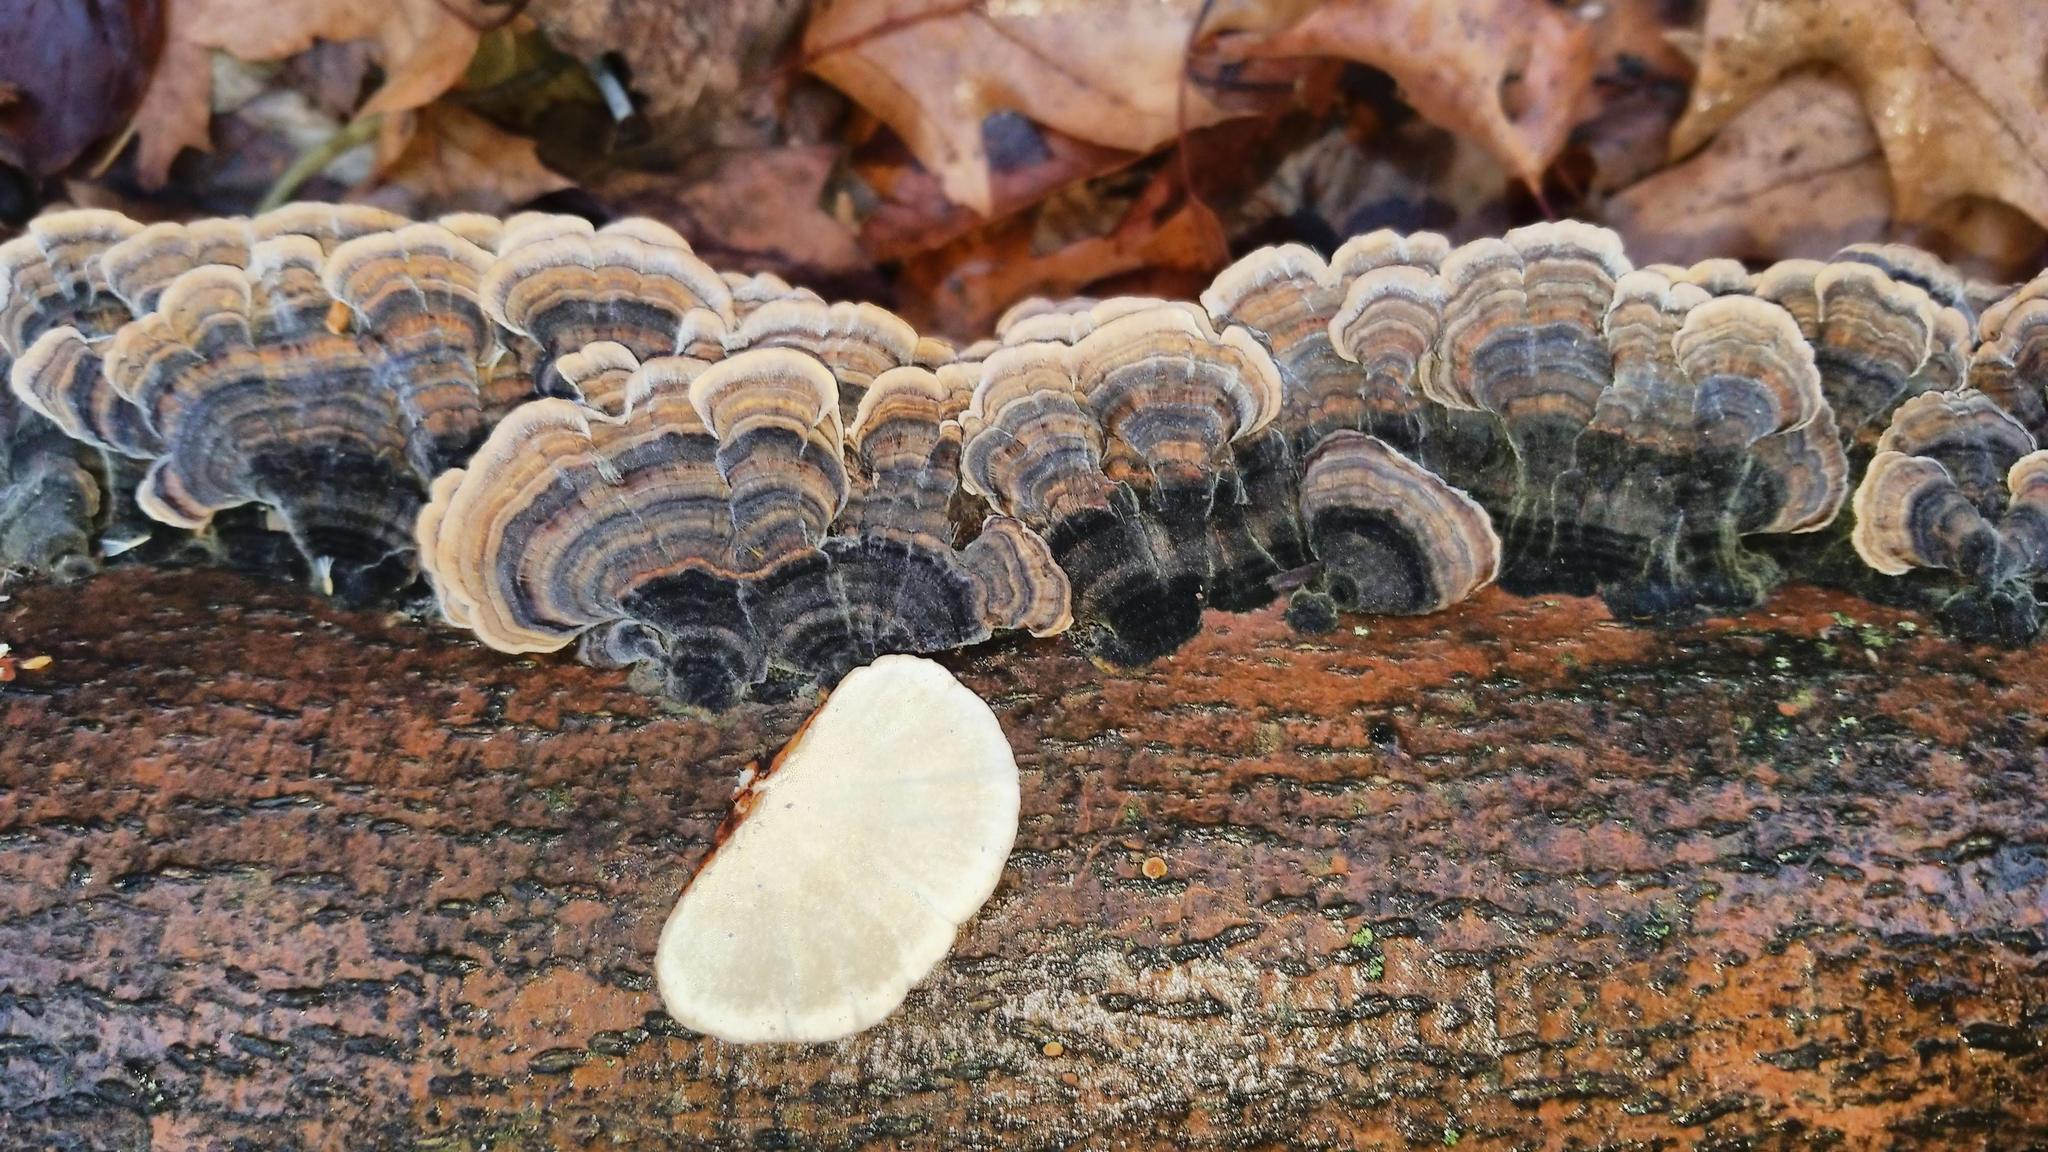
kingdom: Fungi
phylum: Basidiomycota
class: Agaricomycetes
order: Polyporales
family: Polyporaceae
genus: Trametes
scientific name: Trametes versicolor
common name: Turkeytail
